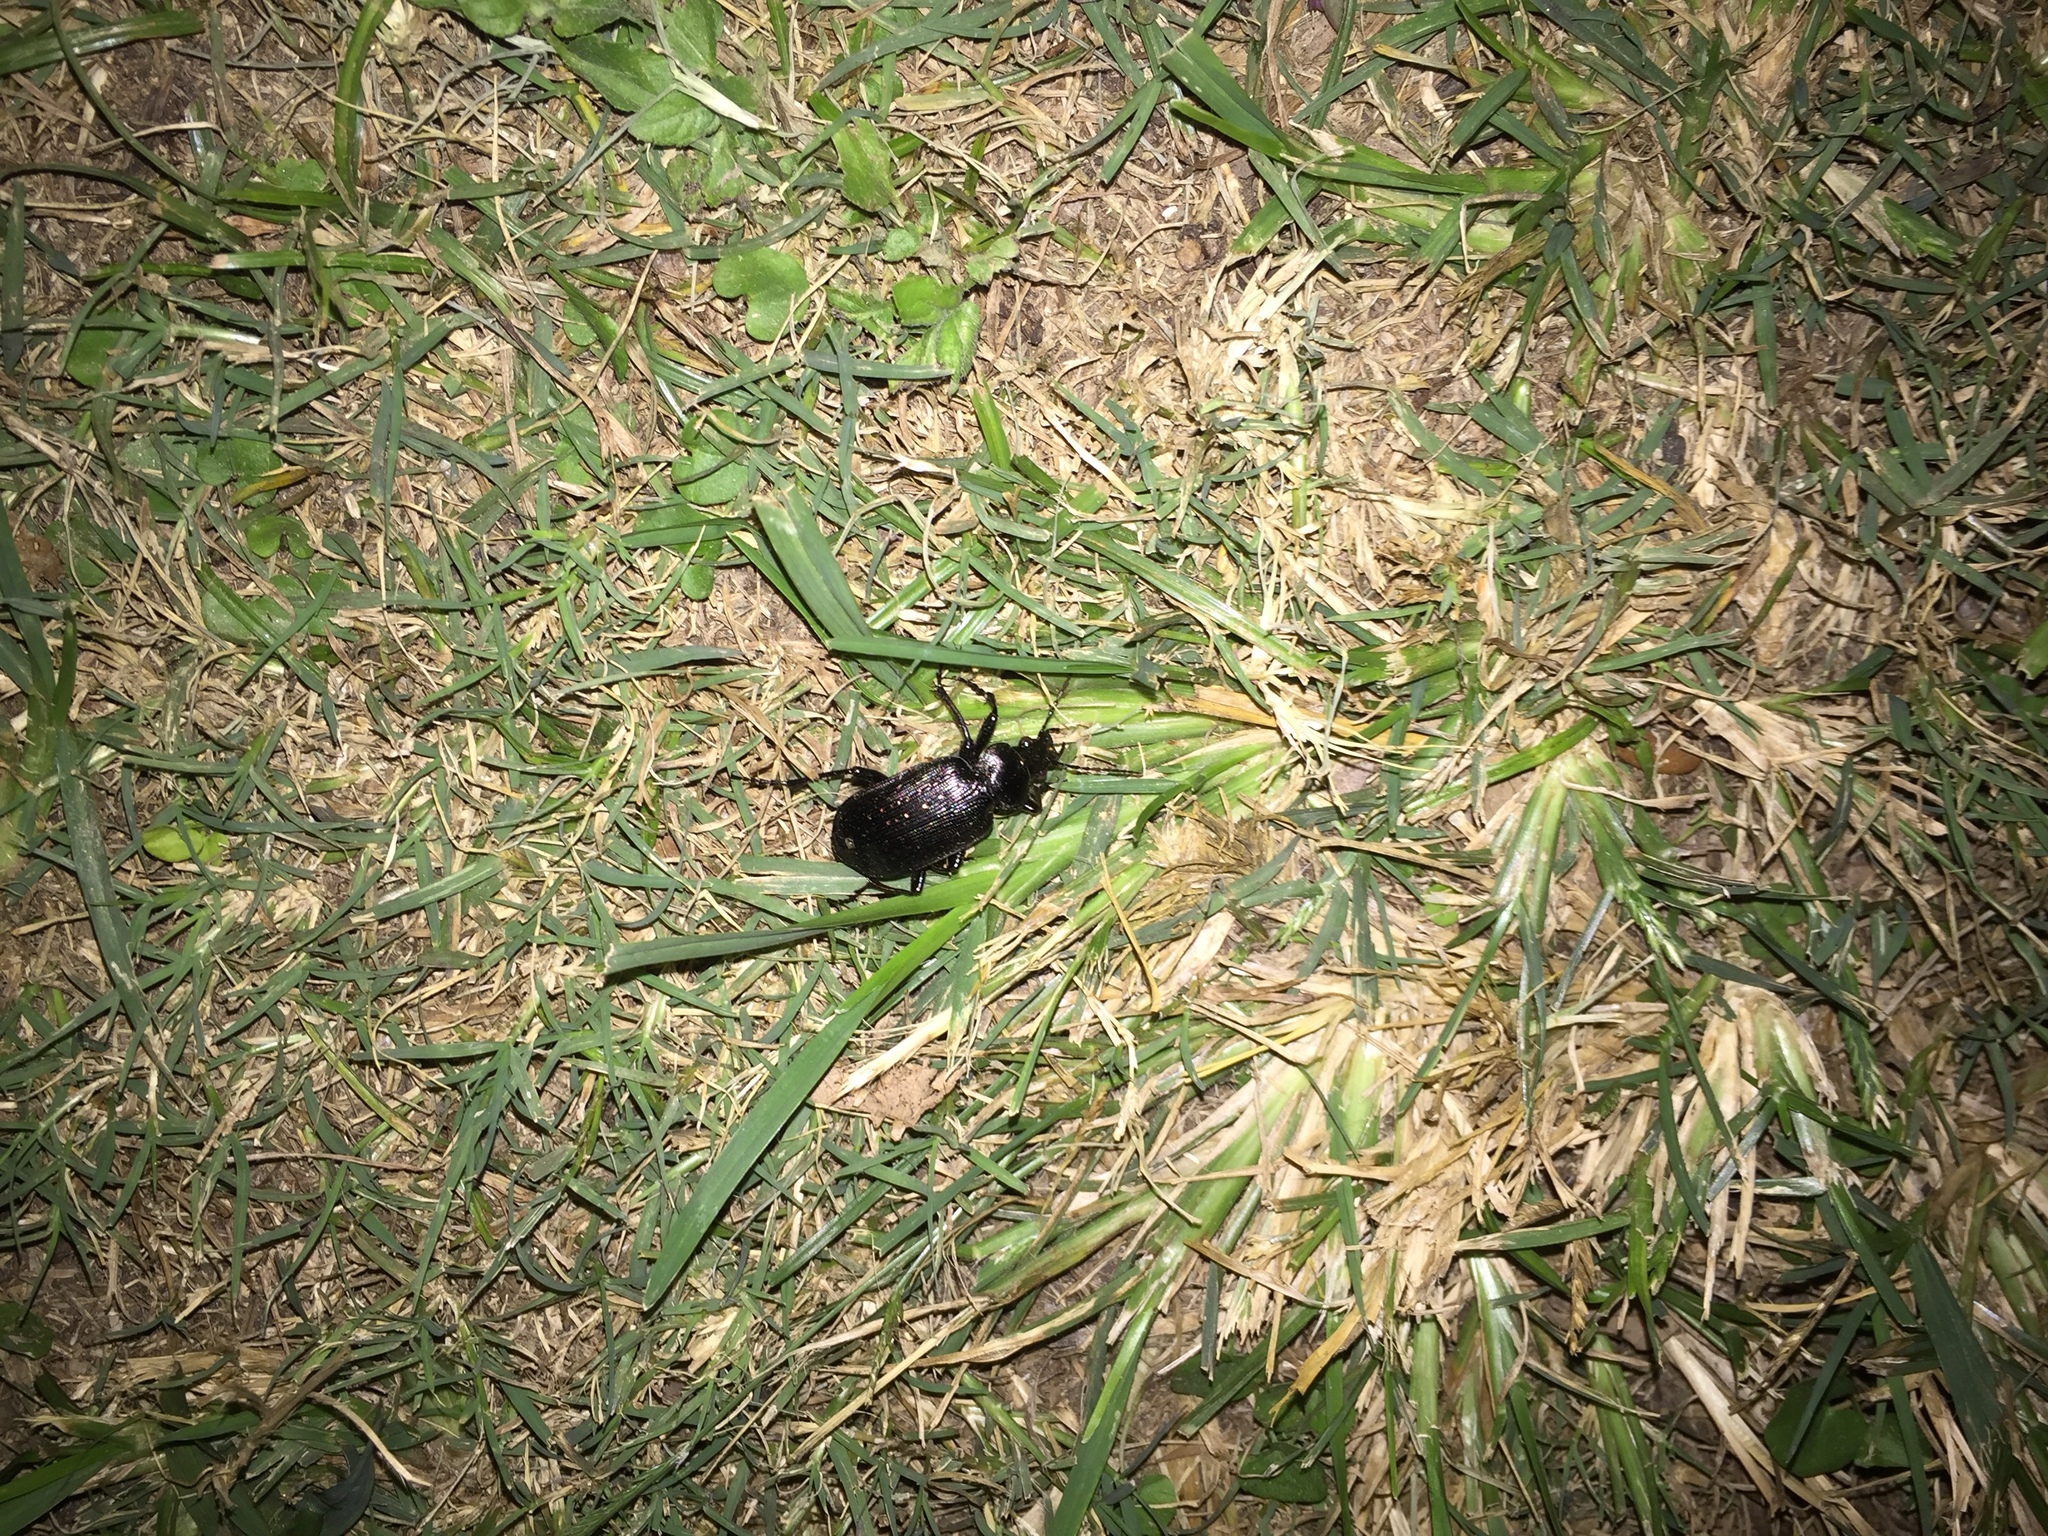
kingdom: Animalia
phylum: Arthropoda
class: Insecta
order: Coleoptera
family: Carabidae
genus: Calosoma
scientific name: Calosoma sayi
